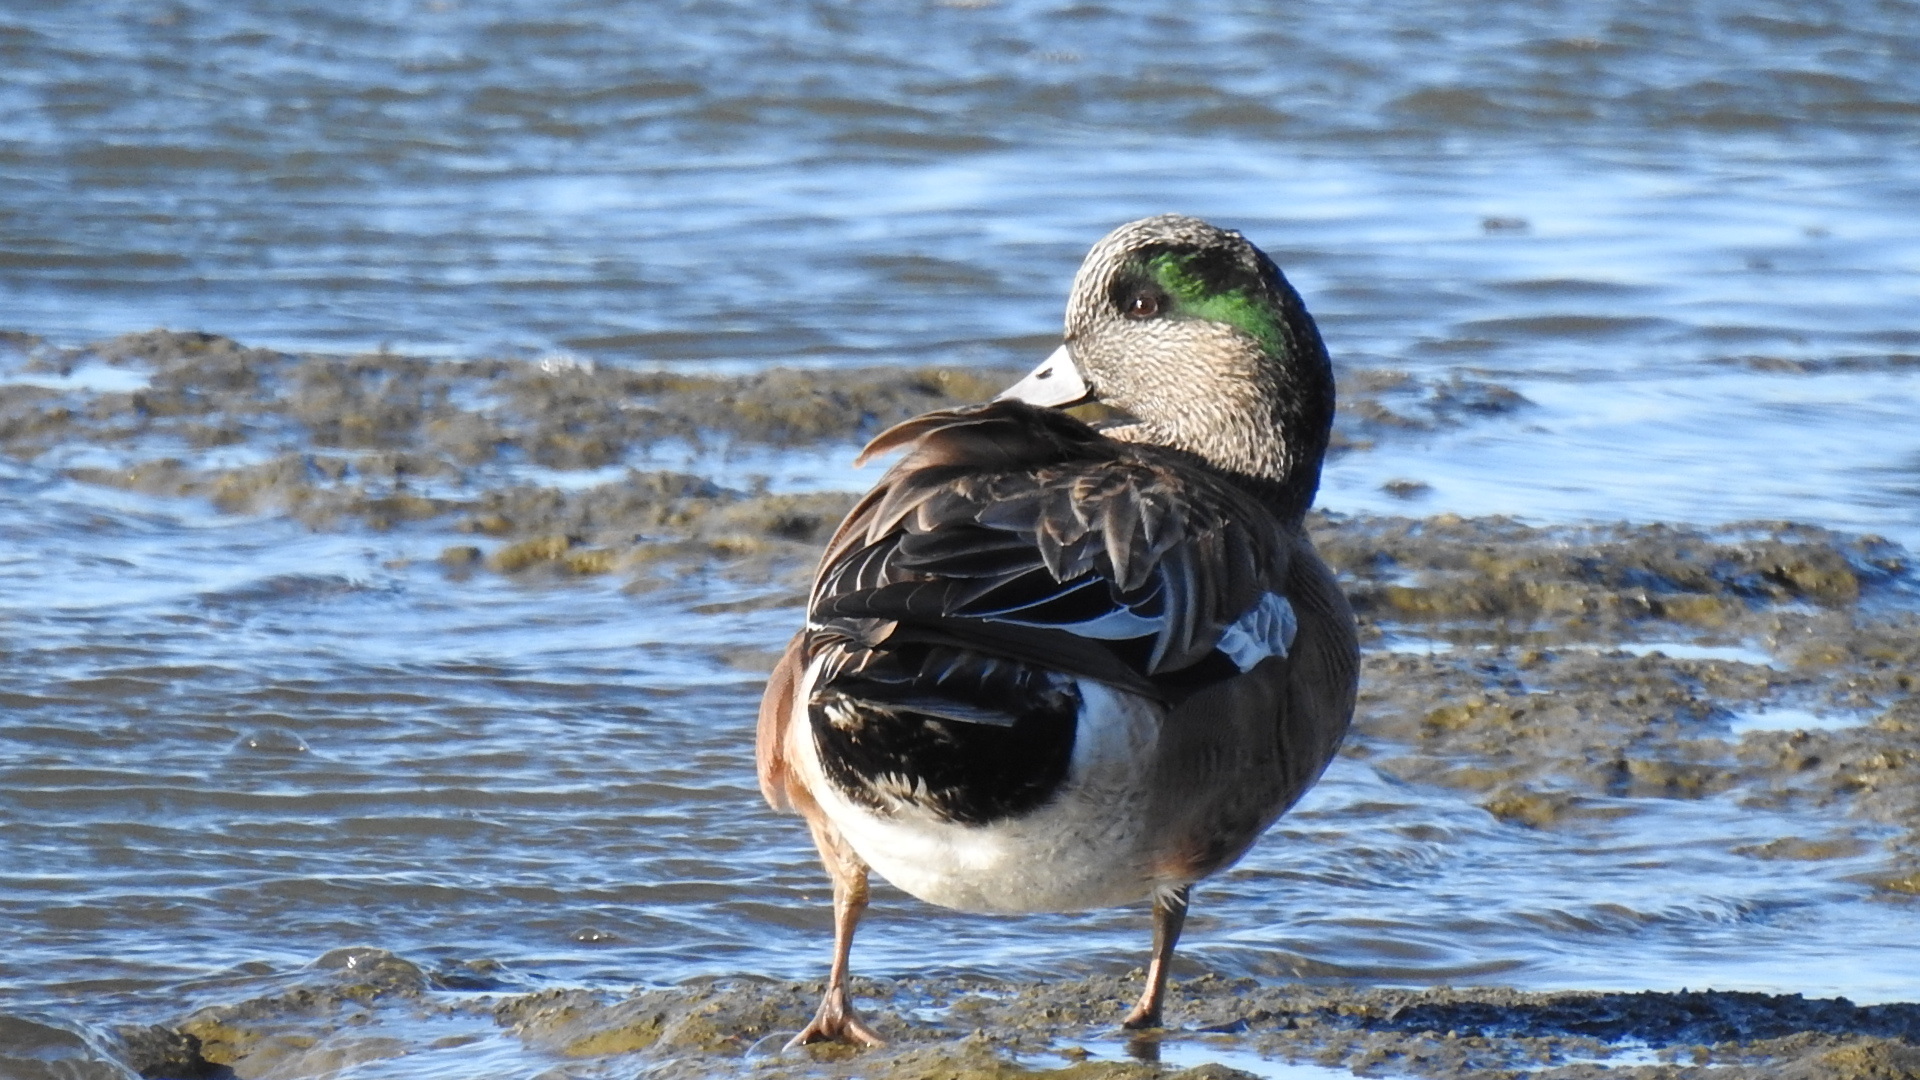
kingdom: Animalia
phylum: Chordata
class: Aves
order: Anseriformes
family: Anatidae
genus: Mareca
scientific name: Mareca americana
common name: American wigeon
